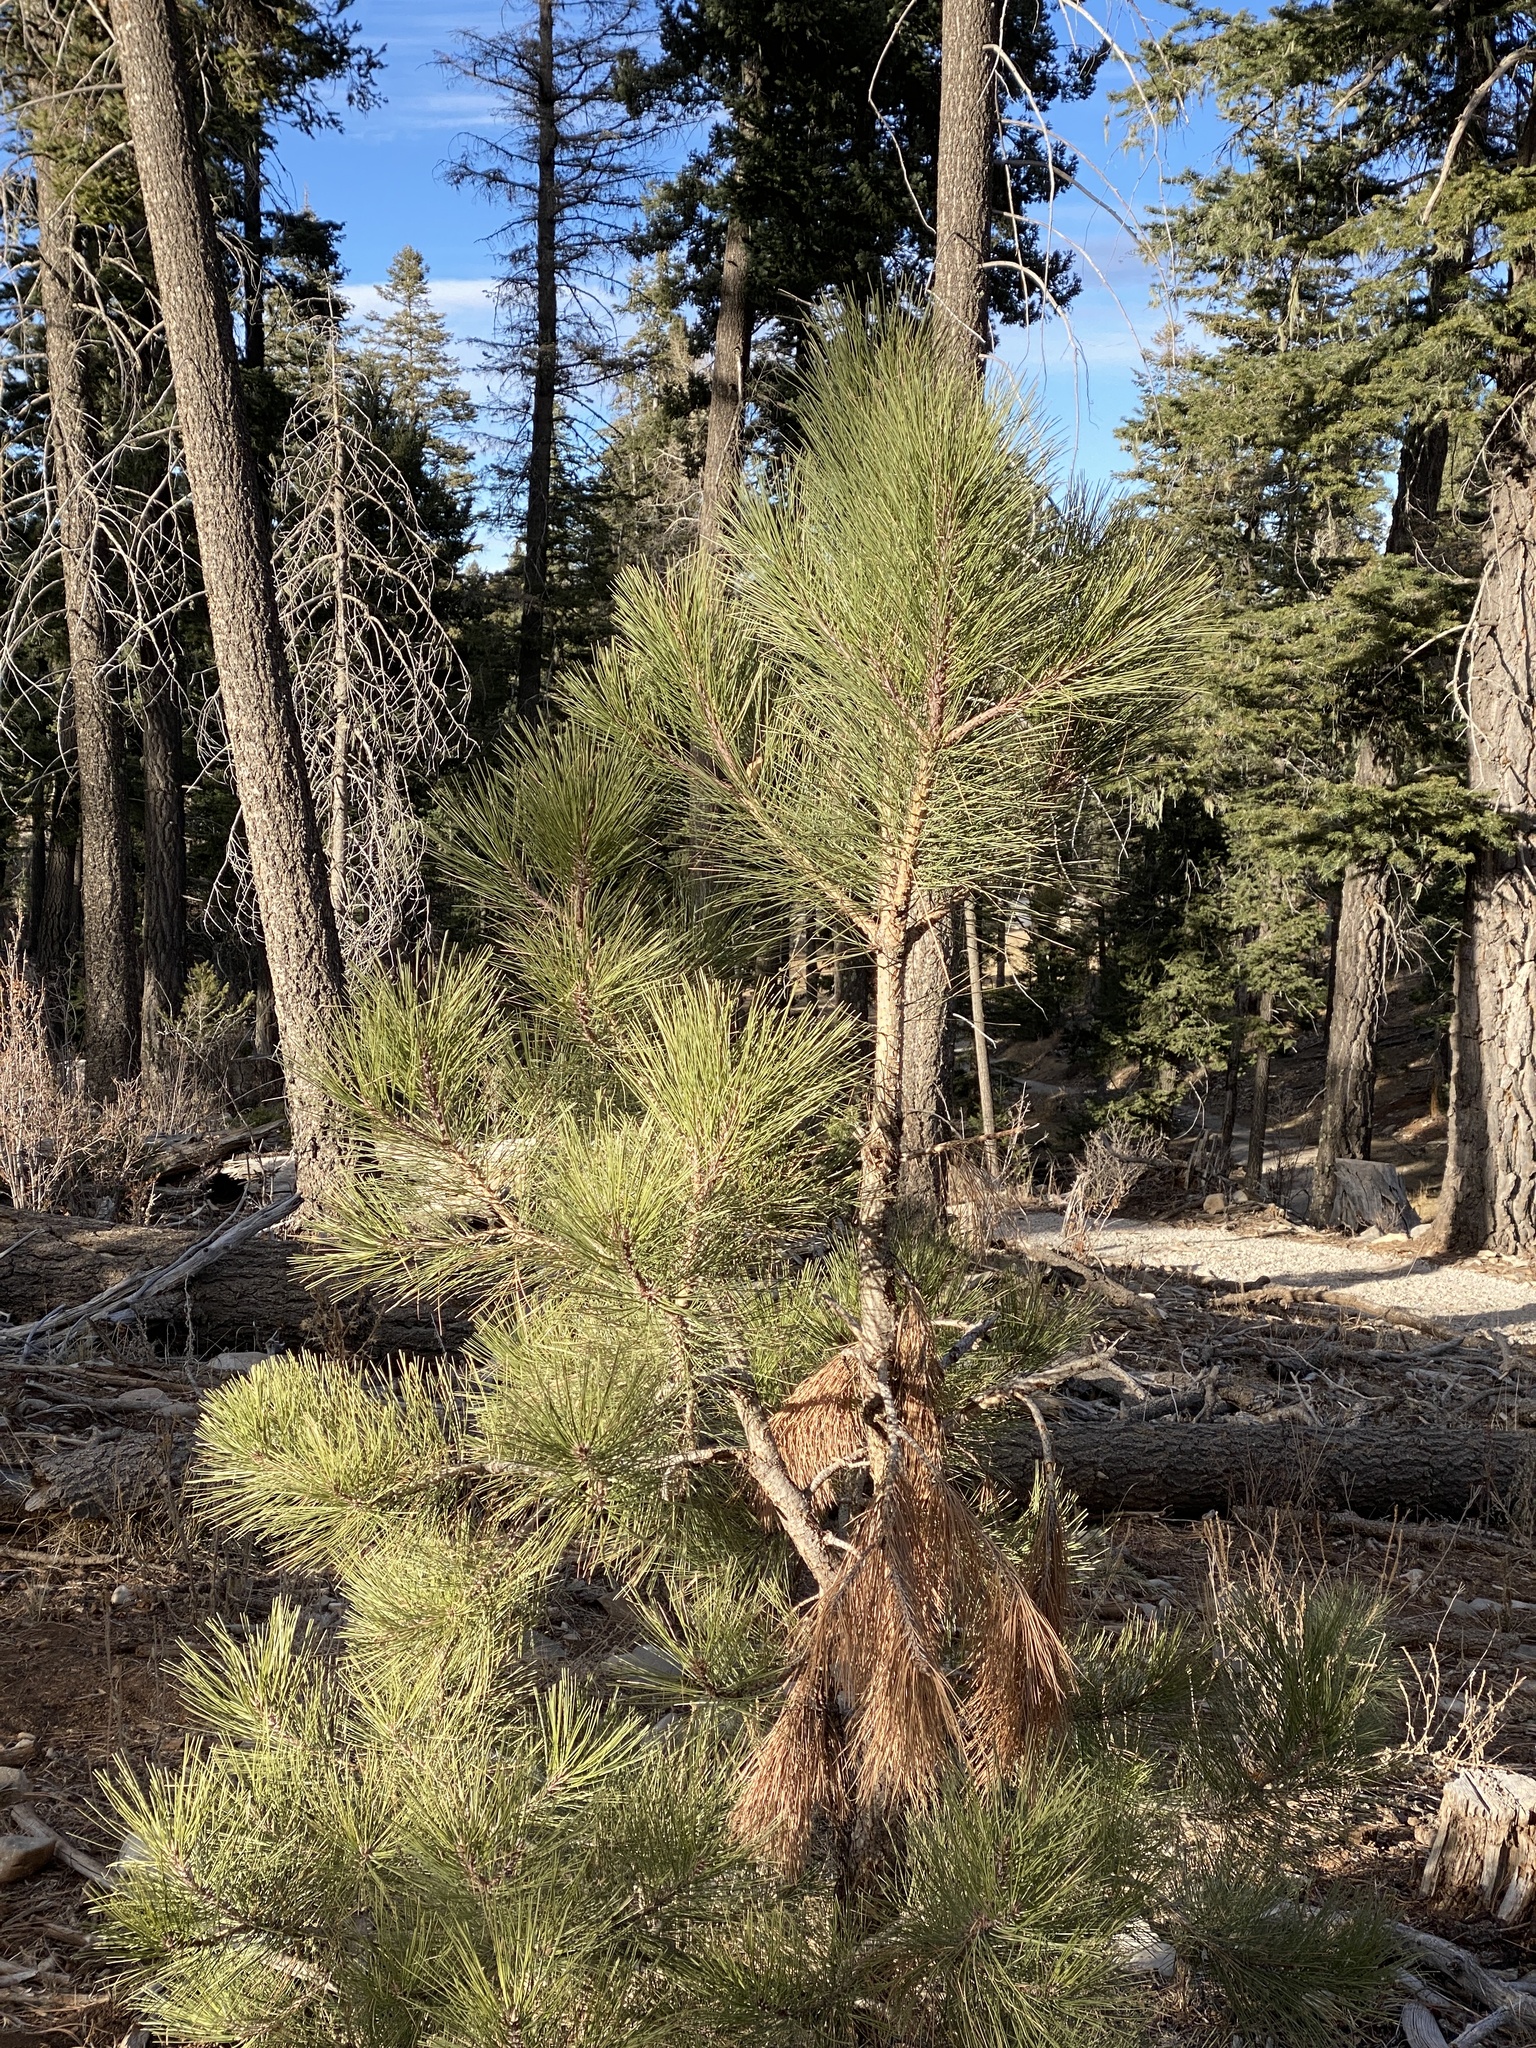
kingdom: Plantae
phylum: Tracheophyta
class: Pinopsida
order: Pinales
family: Pinaceae
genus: Pinus
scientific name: Pinus ponderosa
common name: Western yellow-pine
